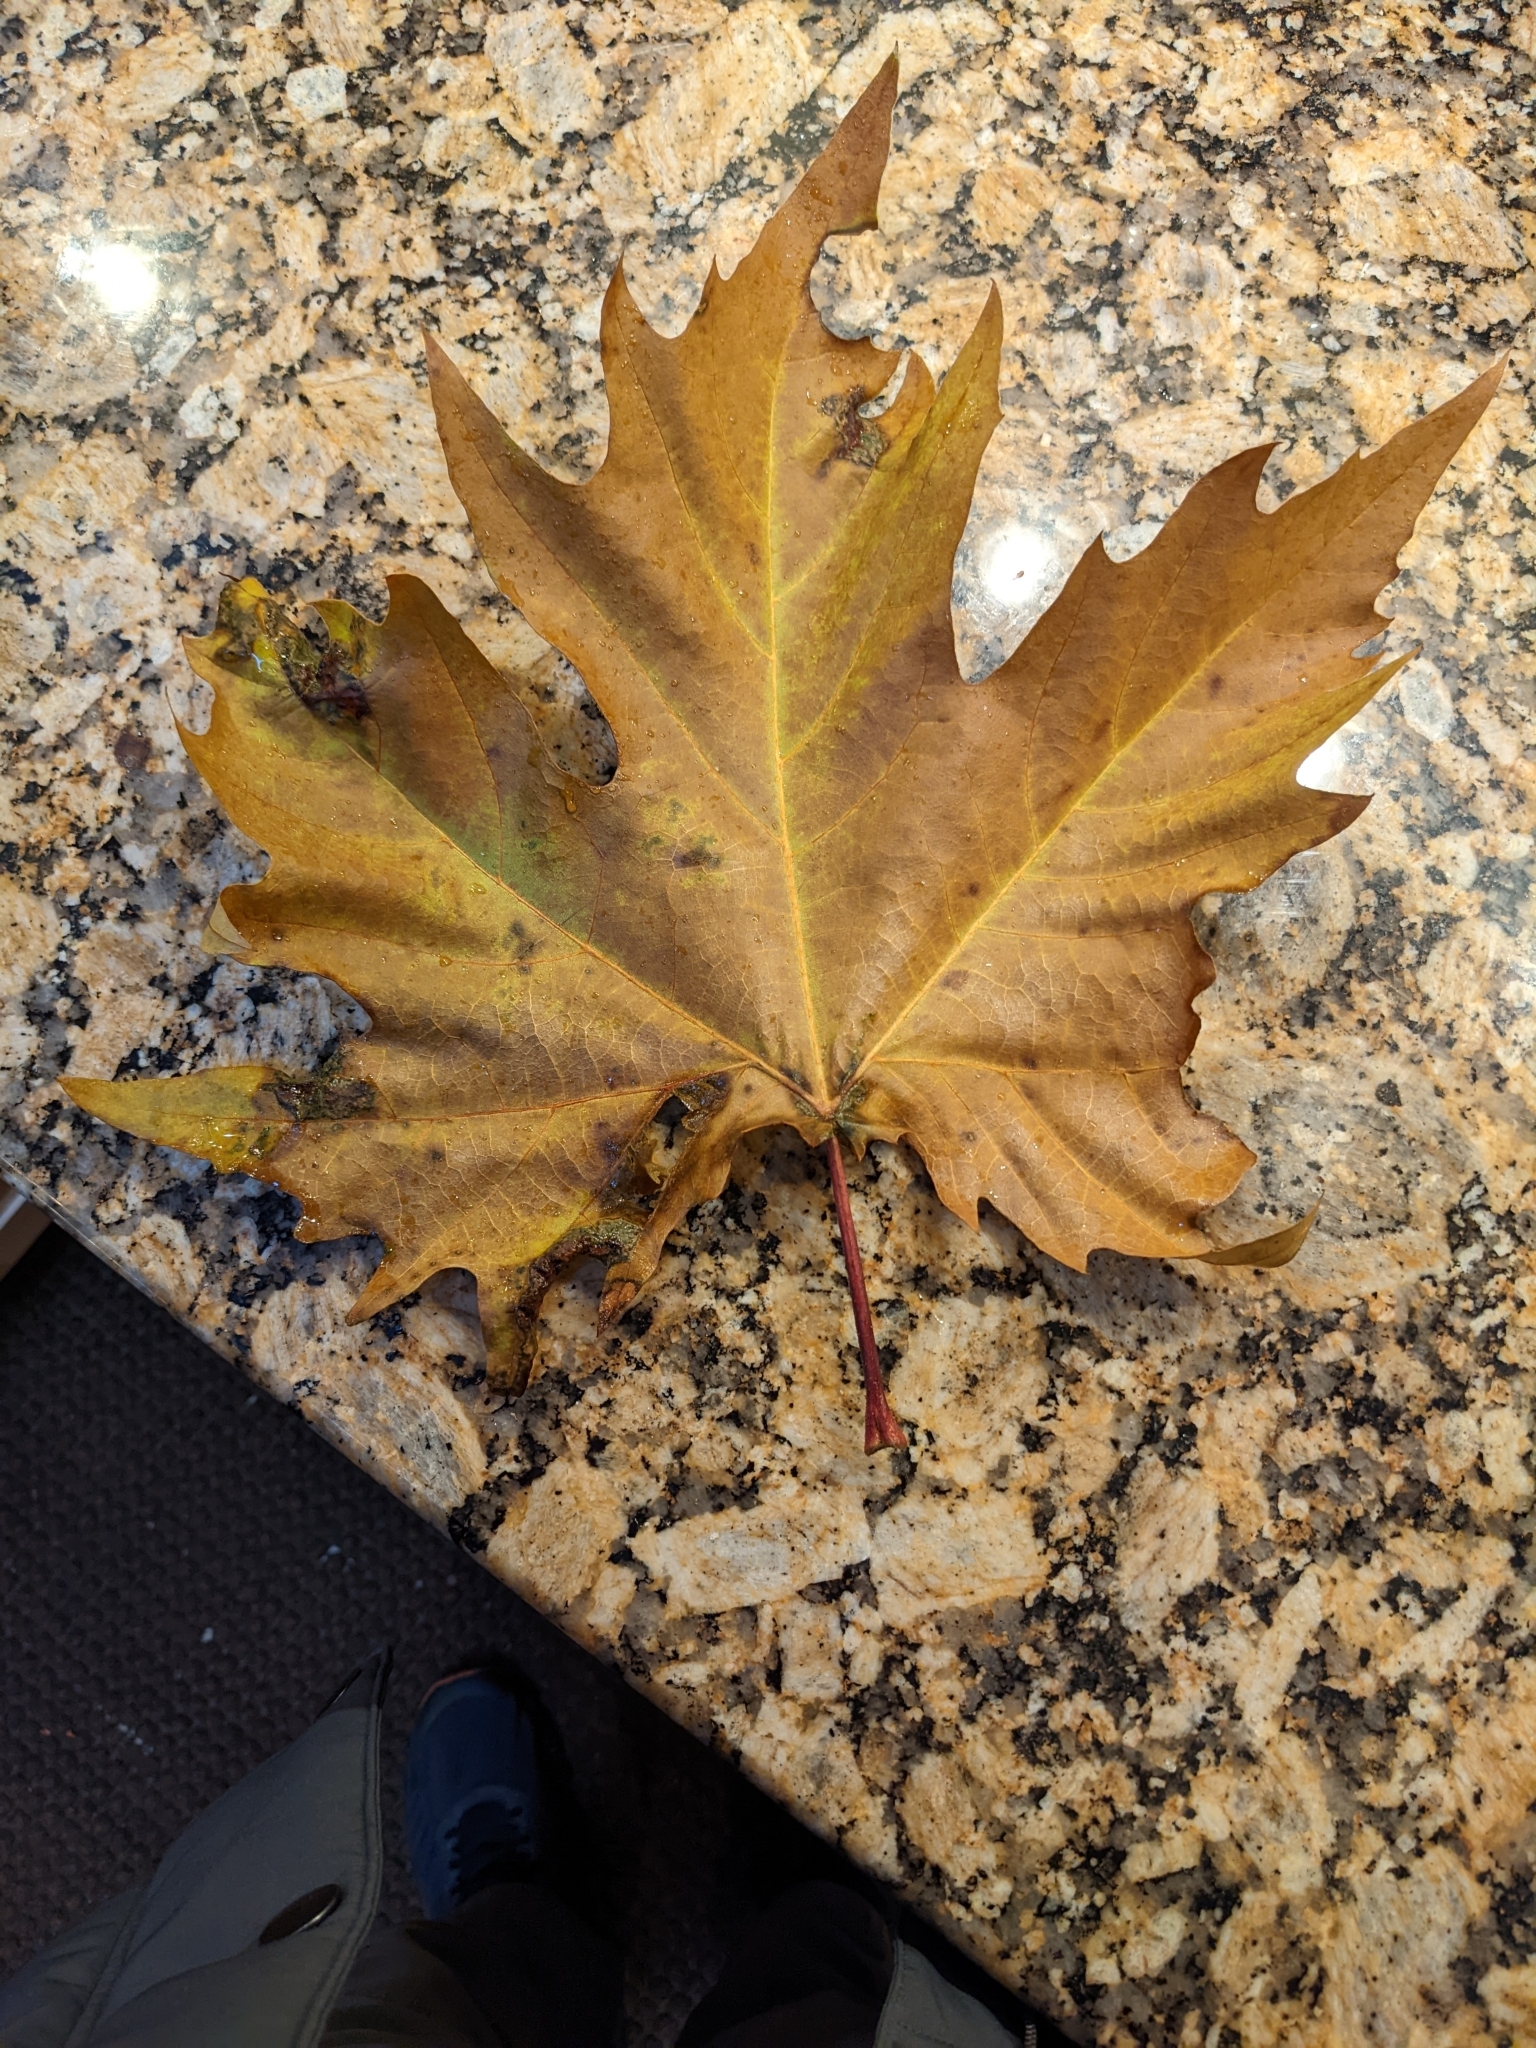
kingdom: Plantae
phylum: Tracheophyta
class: Magnoliopsida
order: Sapindales
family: Sapindaceae
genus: Acer
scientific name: Acer saccharinum
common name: Silver maple
